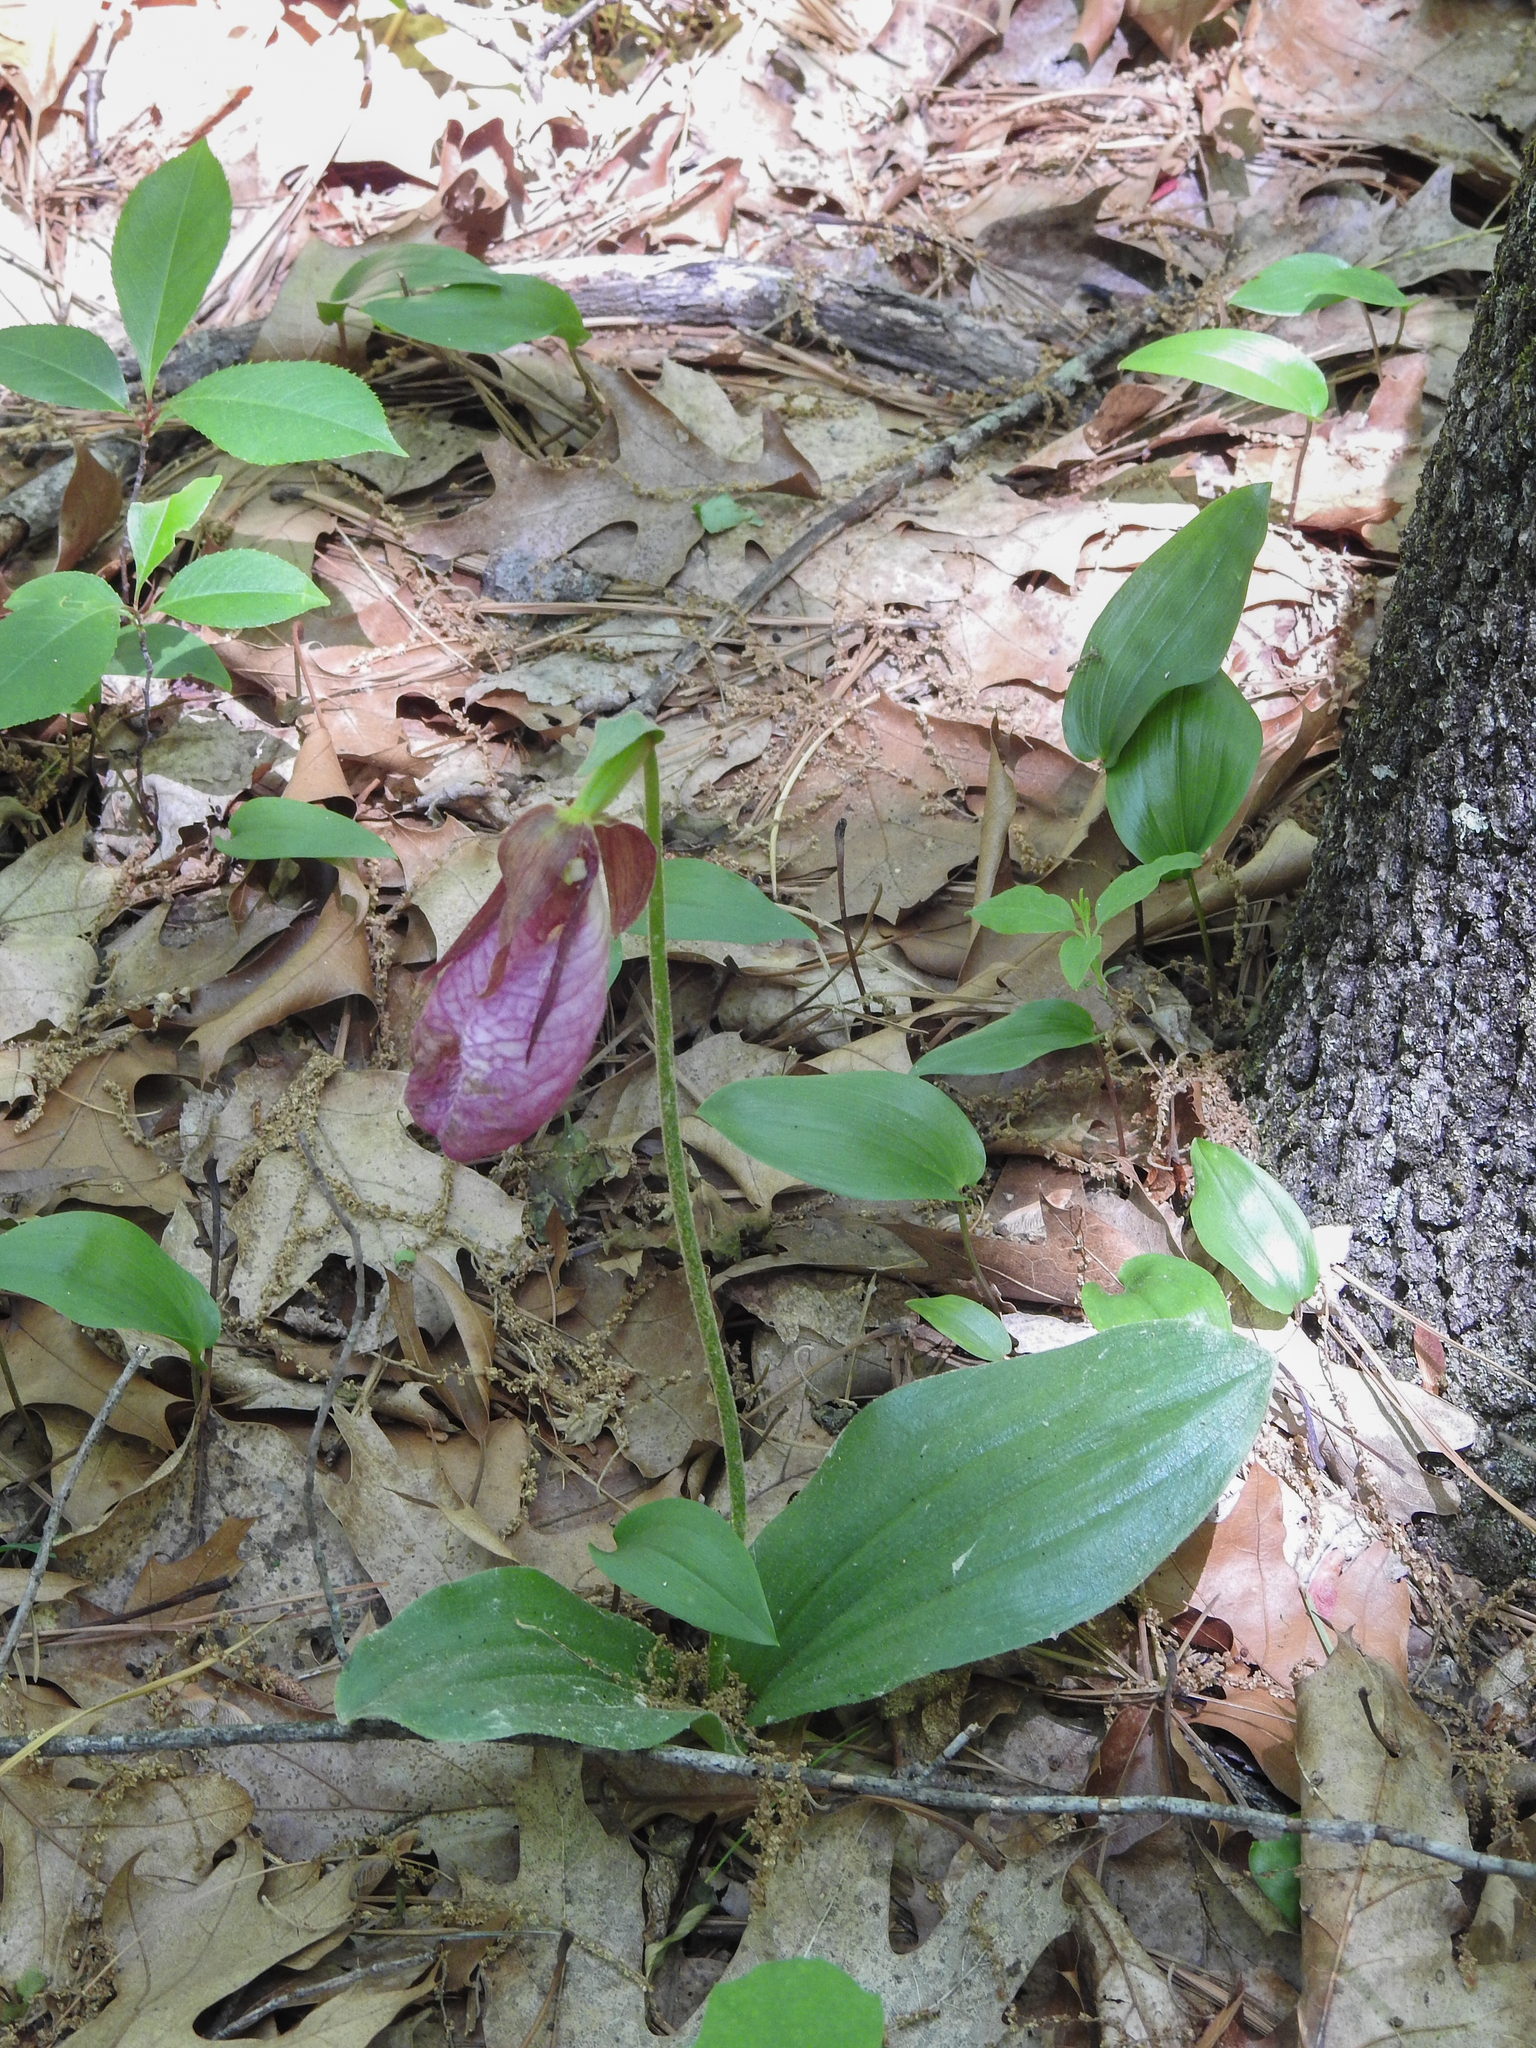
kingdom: Plantae
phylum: Tracheophyta
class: Liliopsida
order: Asparagales
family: Orchidaceae
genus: Cypripedium
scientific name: Cypripedium acaule
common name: Pink lady's-slipper
